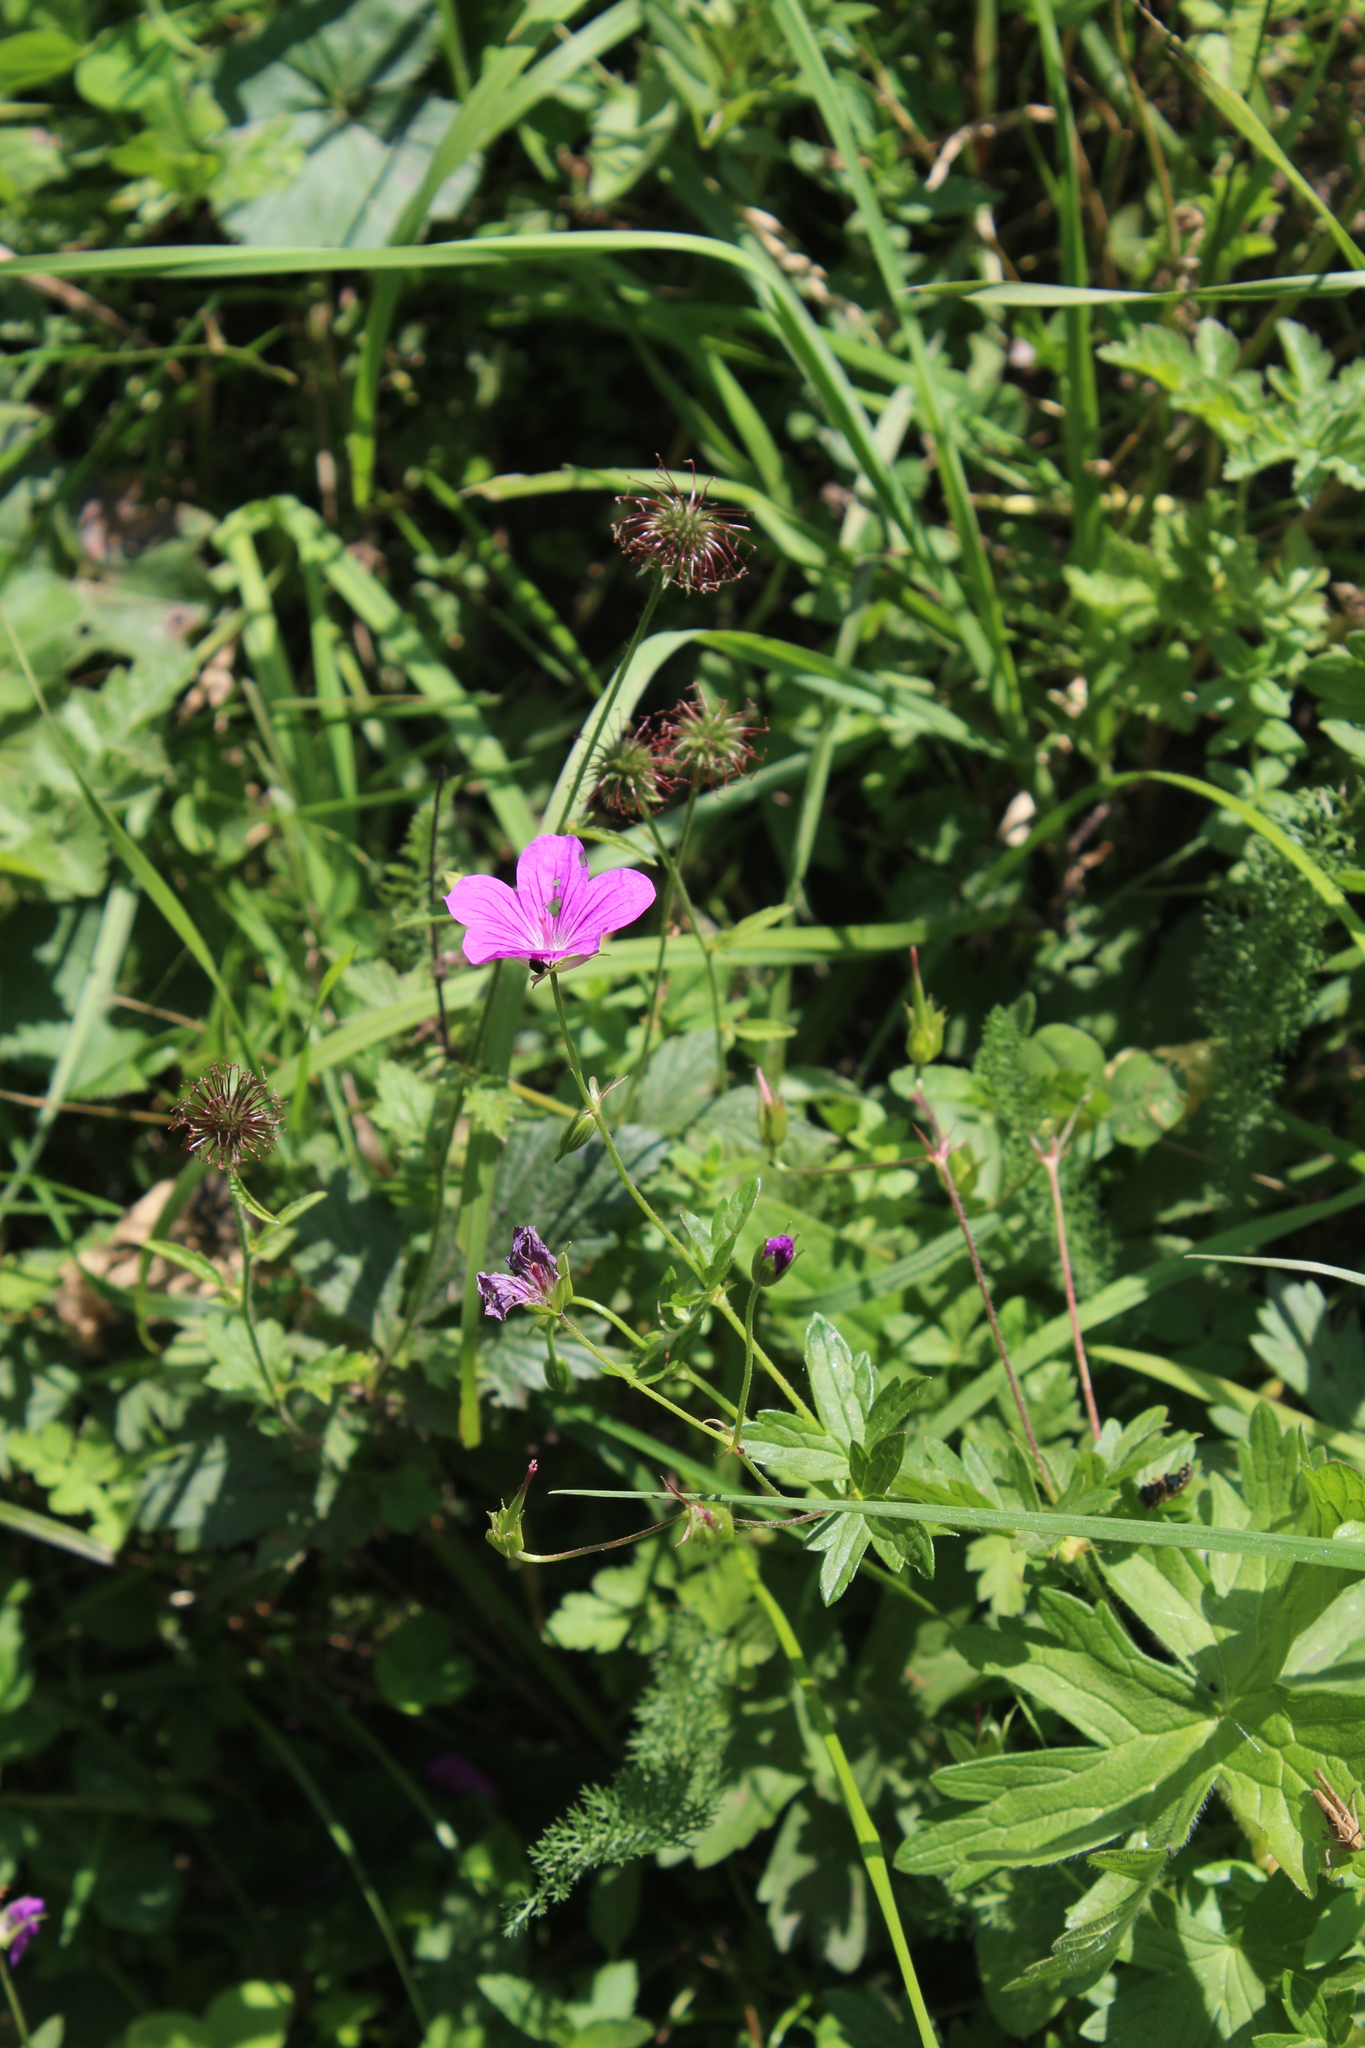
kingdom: Plantae
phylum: Tracheophyta
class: Magnoliopsida
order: Geraniales
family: Geraniaceae
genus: Geranium
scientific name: Geranium palustre
